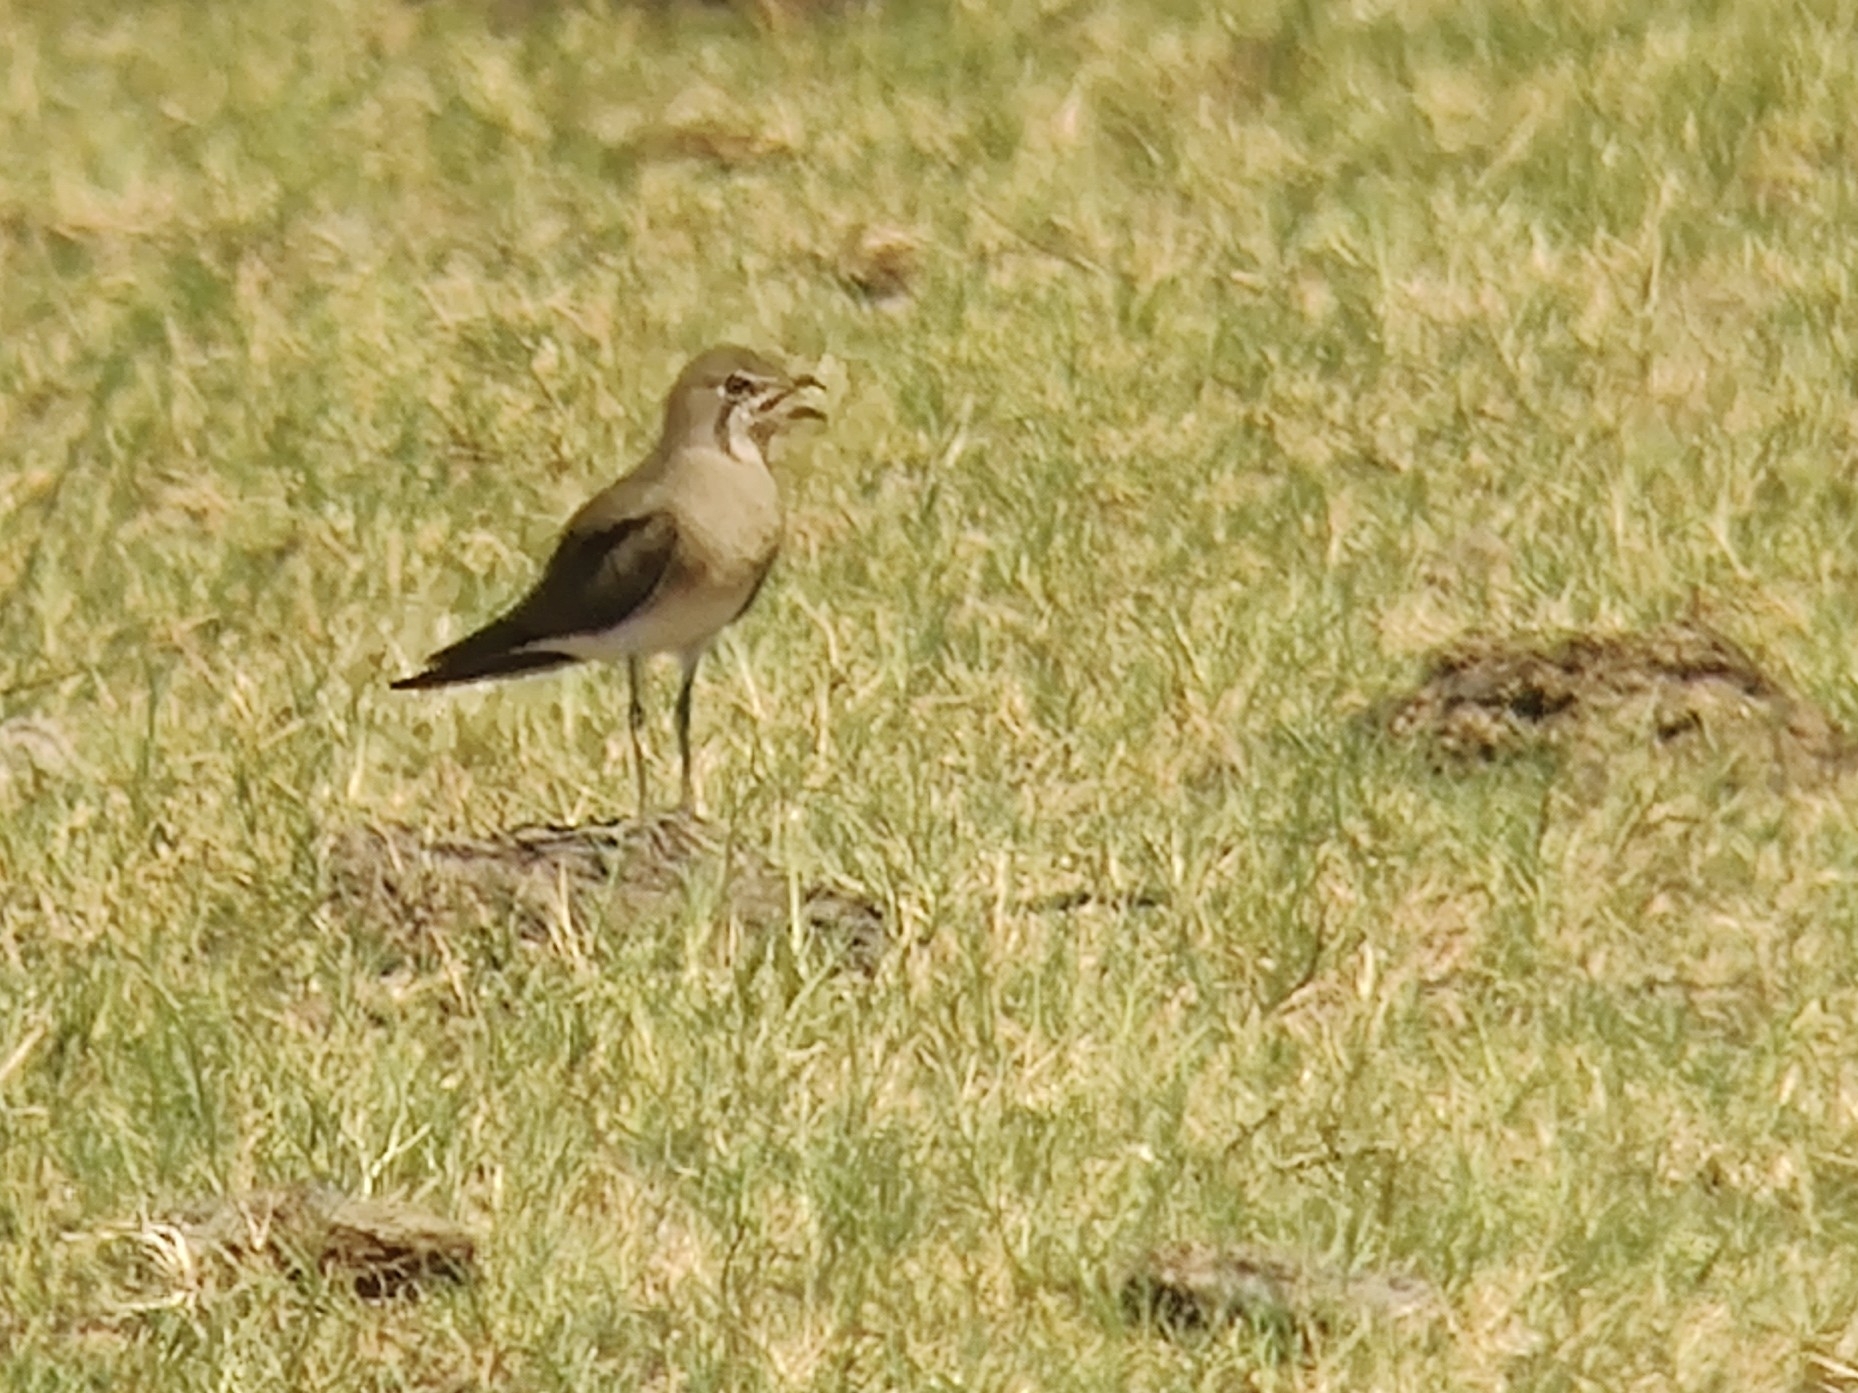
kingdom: Animalia
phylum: Chordata
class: Aves
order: Charadriiformes
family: Glareolidae
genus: Glareola
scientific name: Glareola maldivarum
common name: Oriental pratincole
